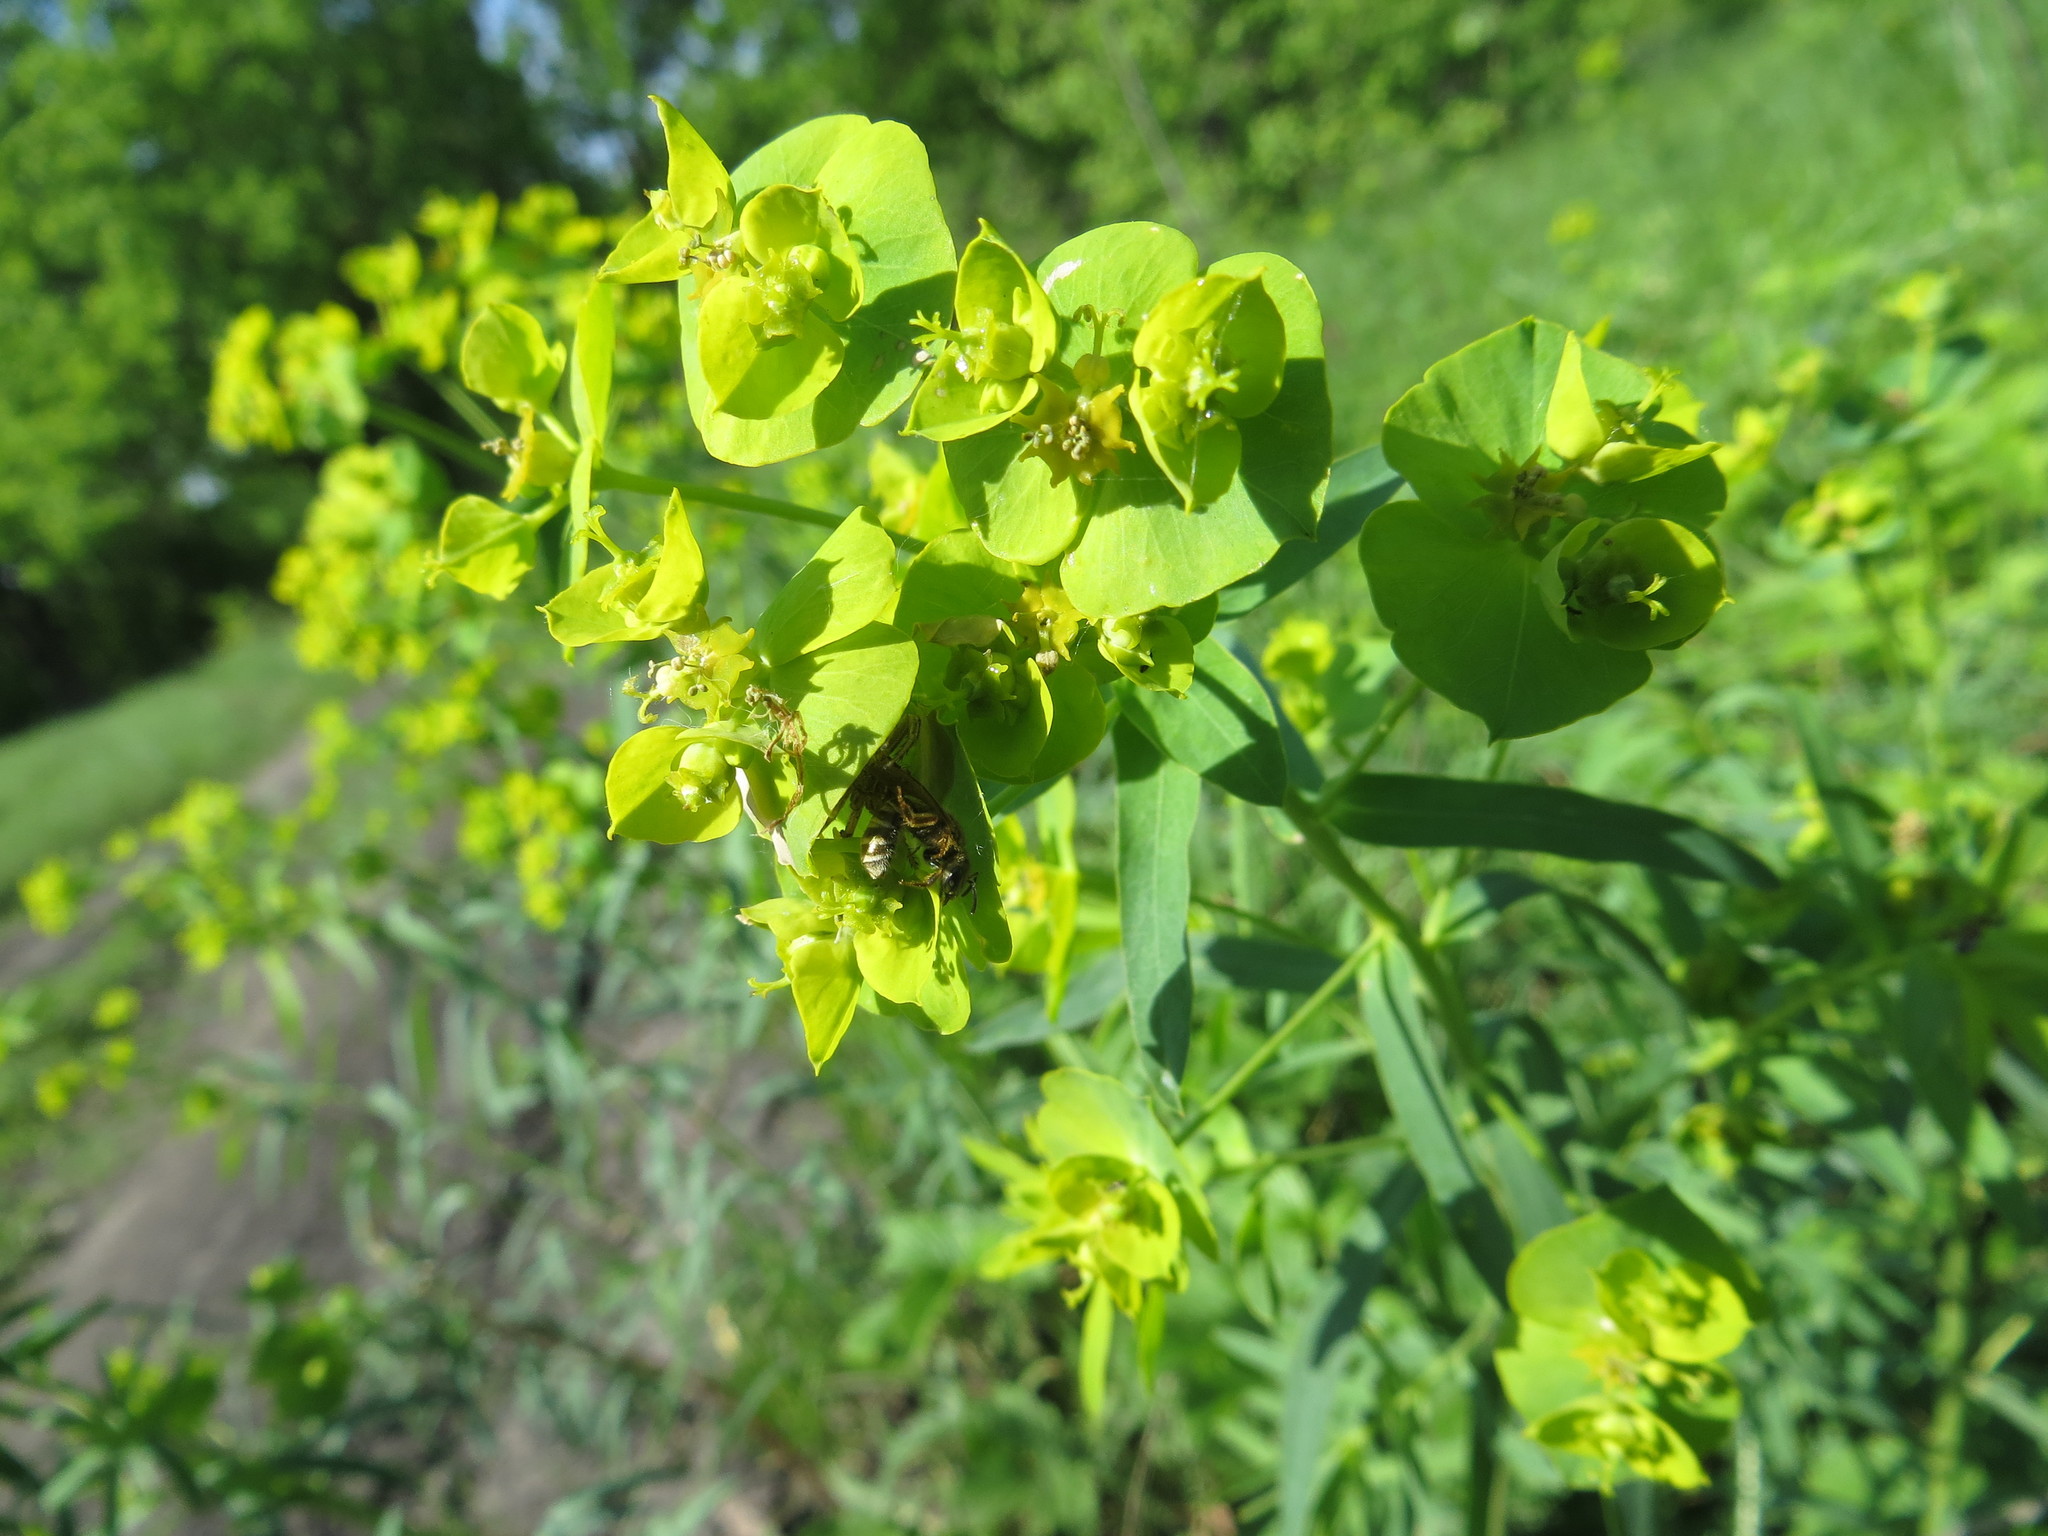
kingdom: Plantae
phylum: Tracheophyta
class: Magnoliopsida
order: Malpighiales
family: Euphorbiaceae
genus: Euphorbia
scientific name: Euphorbia virgata
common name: Leafy spurge
